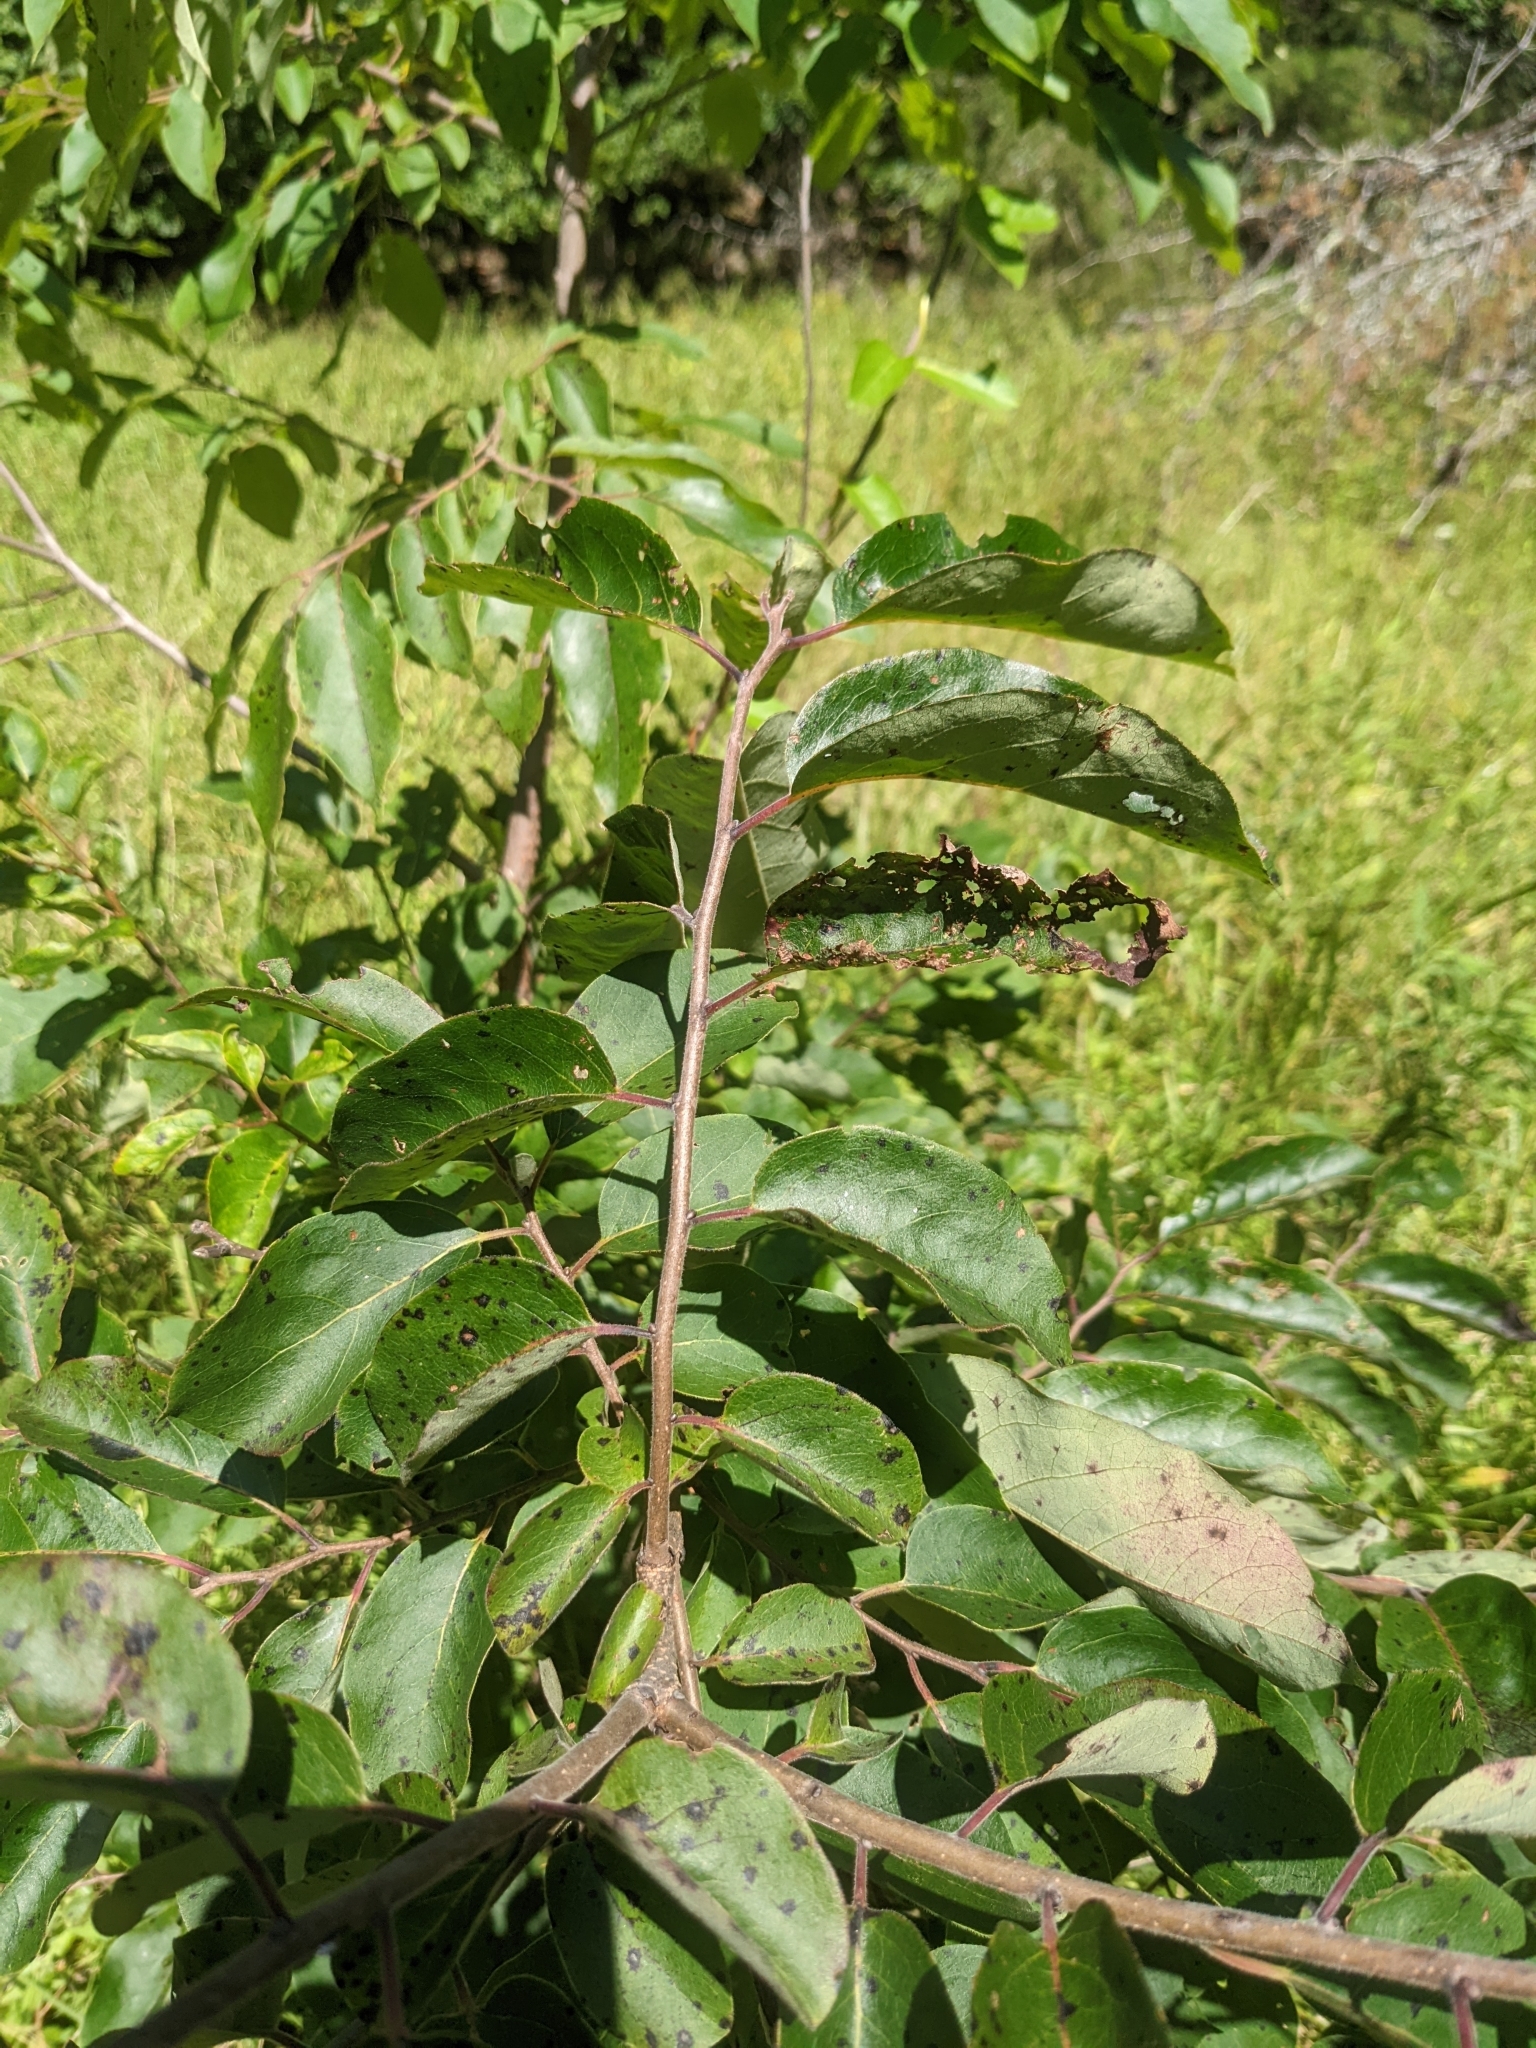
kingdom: Plantae
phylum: Tracheophyta
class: Magnoliopsida
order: Ericales
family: Ebenaceae
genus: Diospyros
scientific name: Diospyros virginiana
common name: Persimmon
